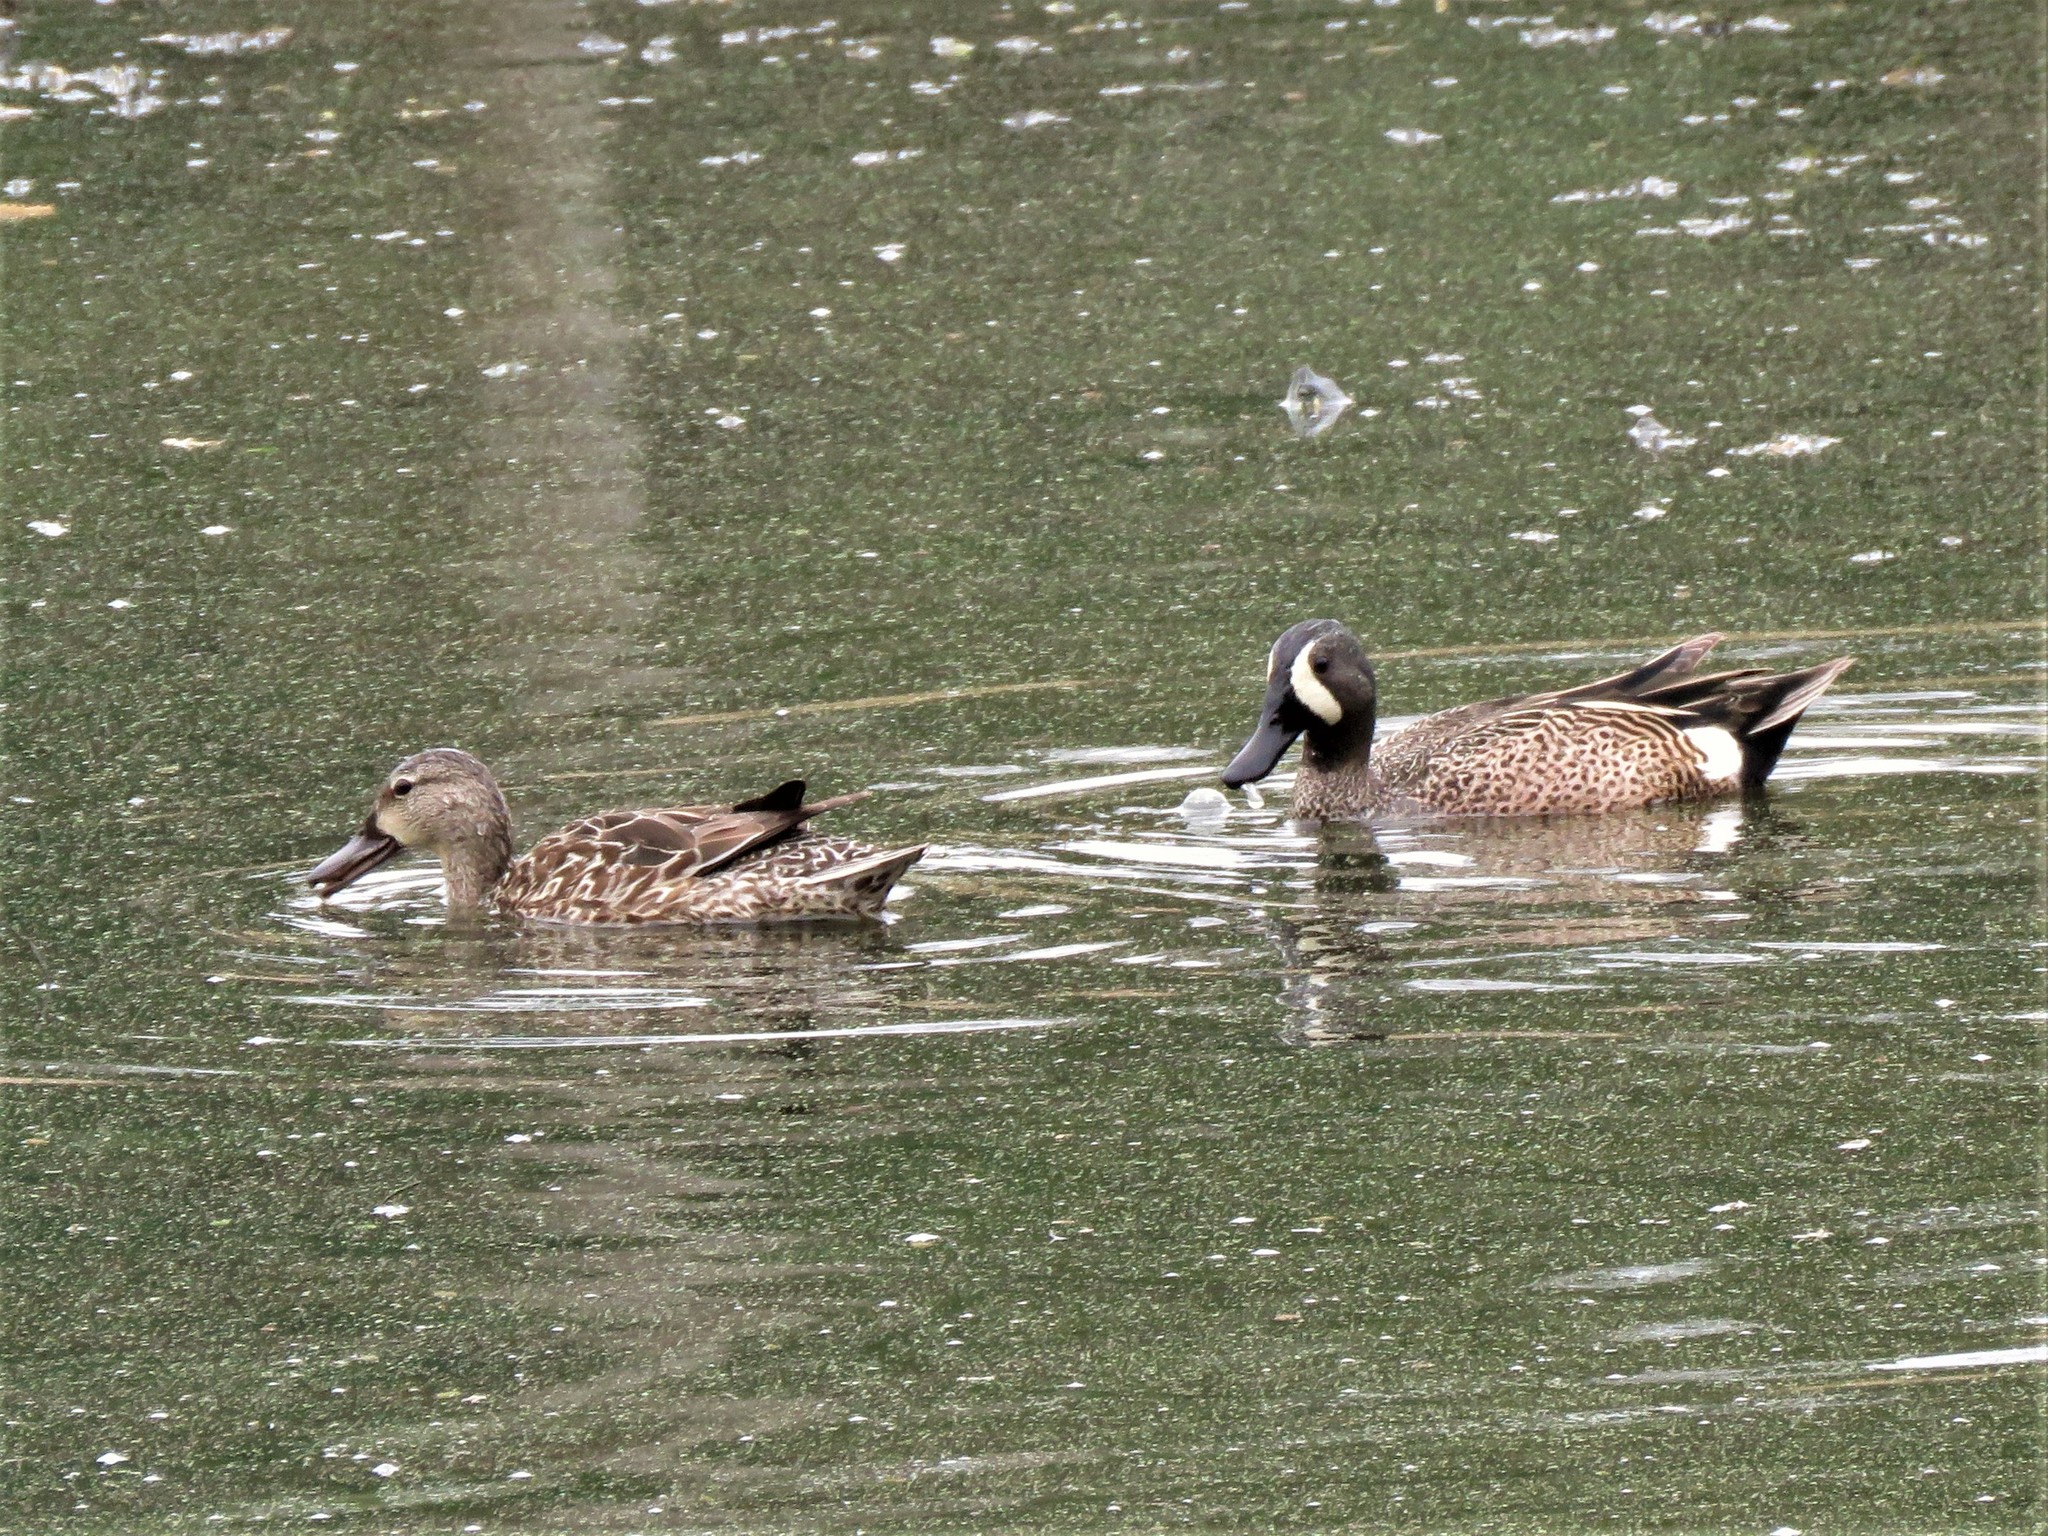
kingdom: Animalia
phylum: Chordata
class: Aves
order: Anseriformes
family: Anatidae
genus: Spatula
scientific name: Spatula discors
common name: Blue-winged teal
